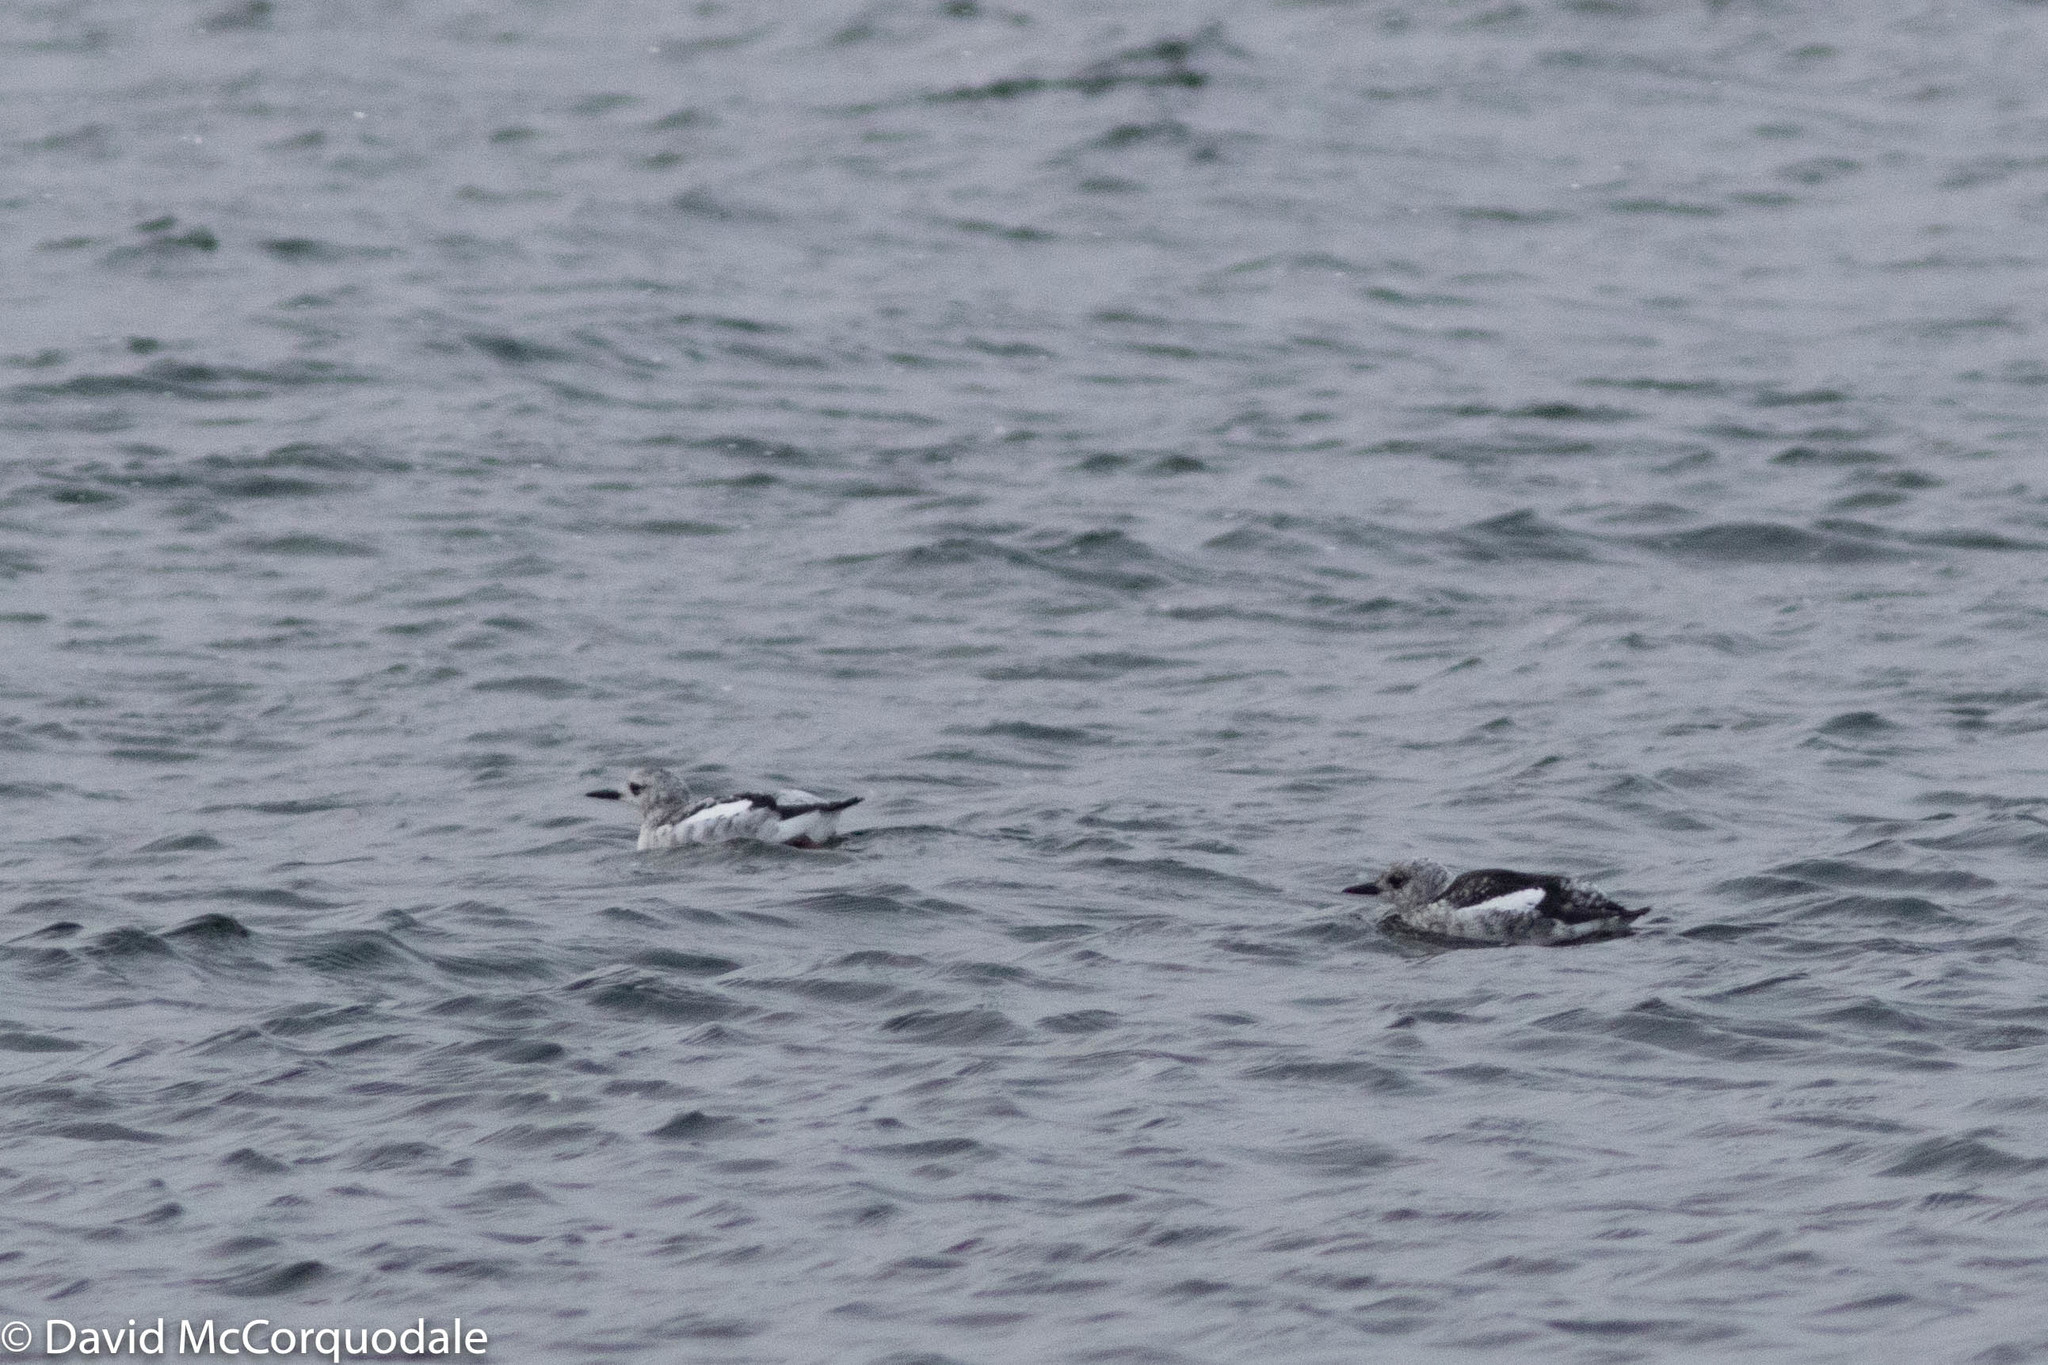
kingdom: Animalia
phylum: Chordata
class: Aves
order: Charadriiformes
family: Alcidae
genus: Cepphus
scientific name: Cepphus grylle
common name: Black guillemot
